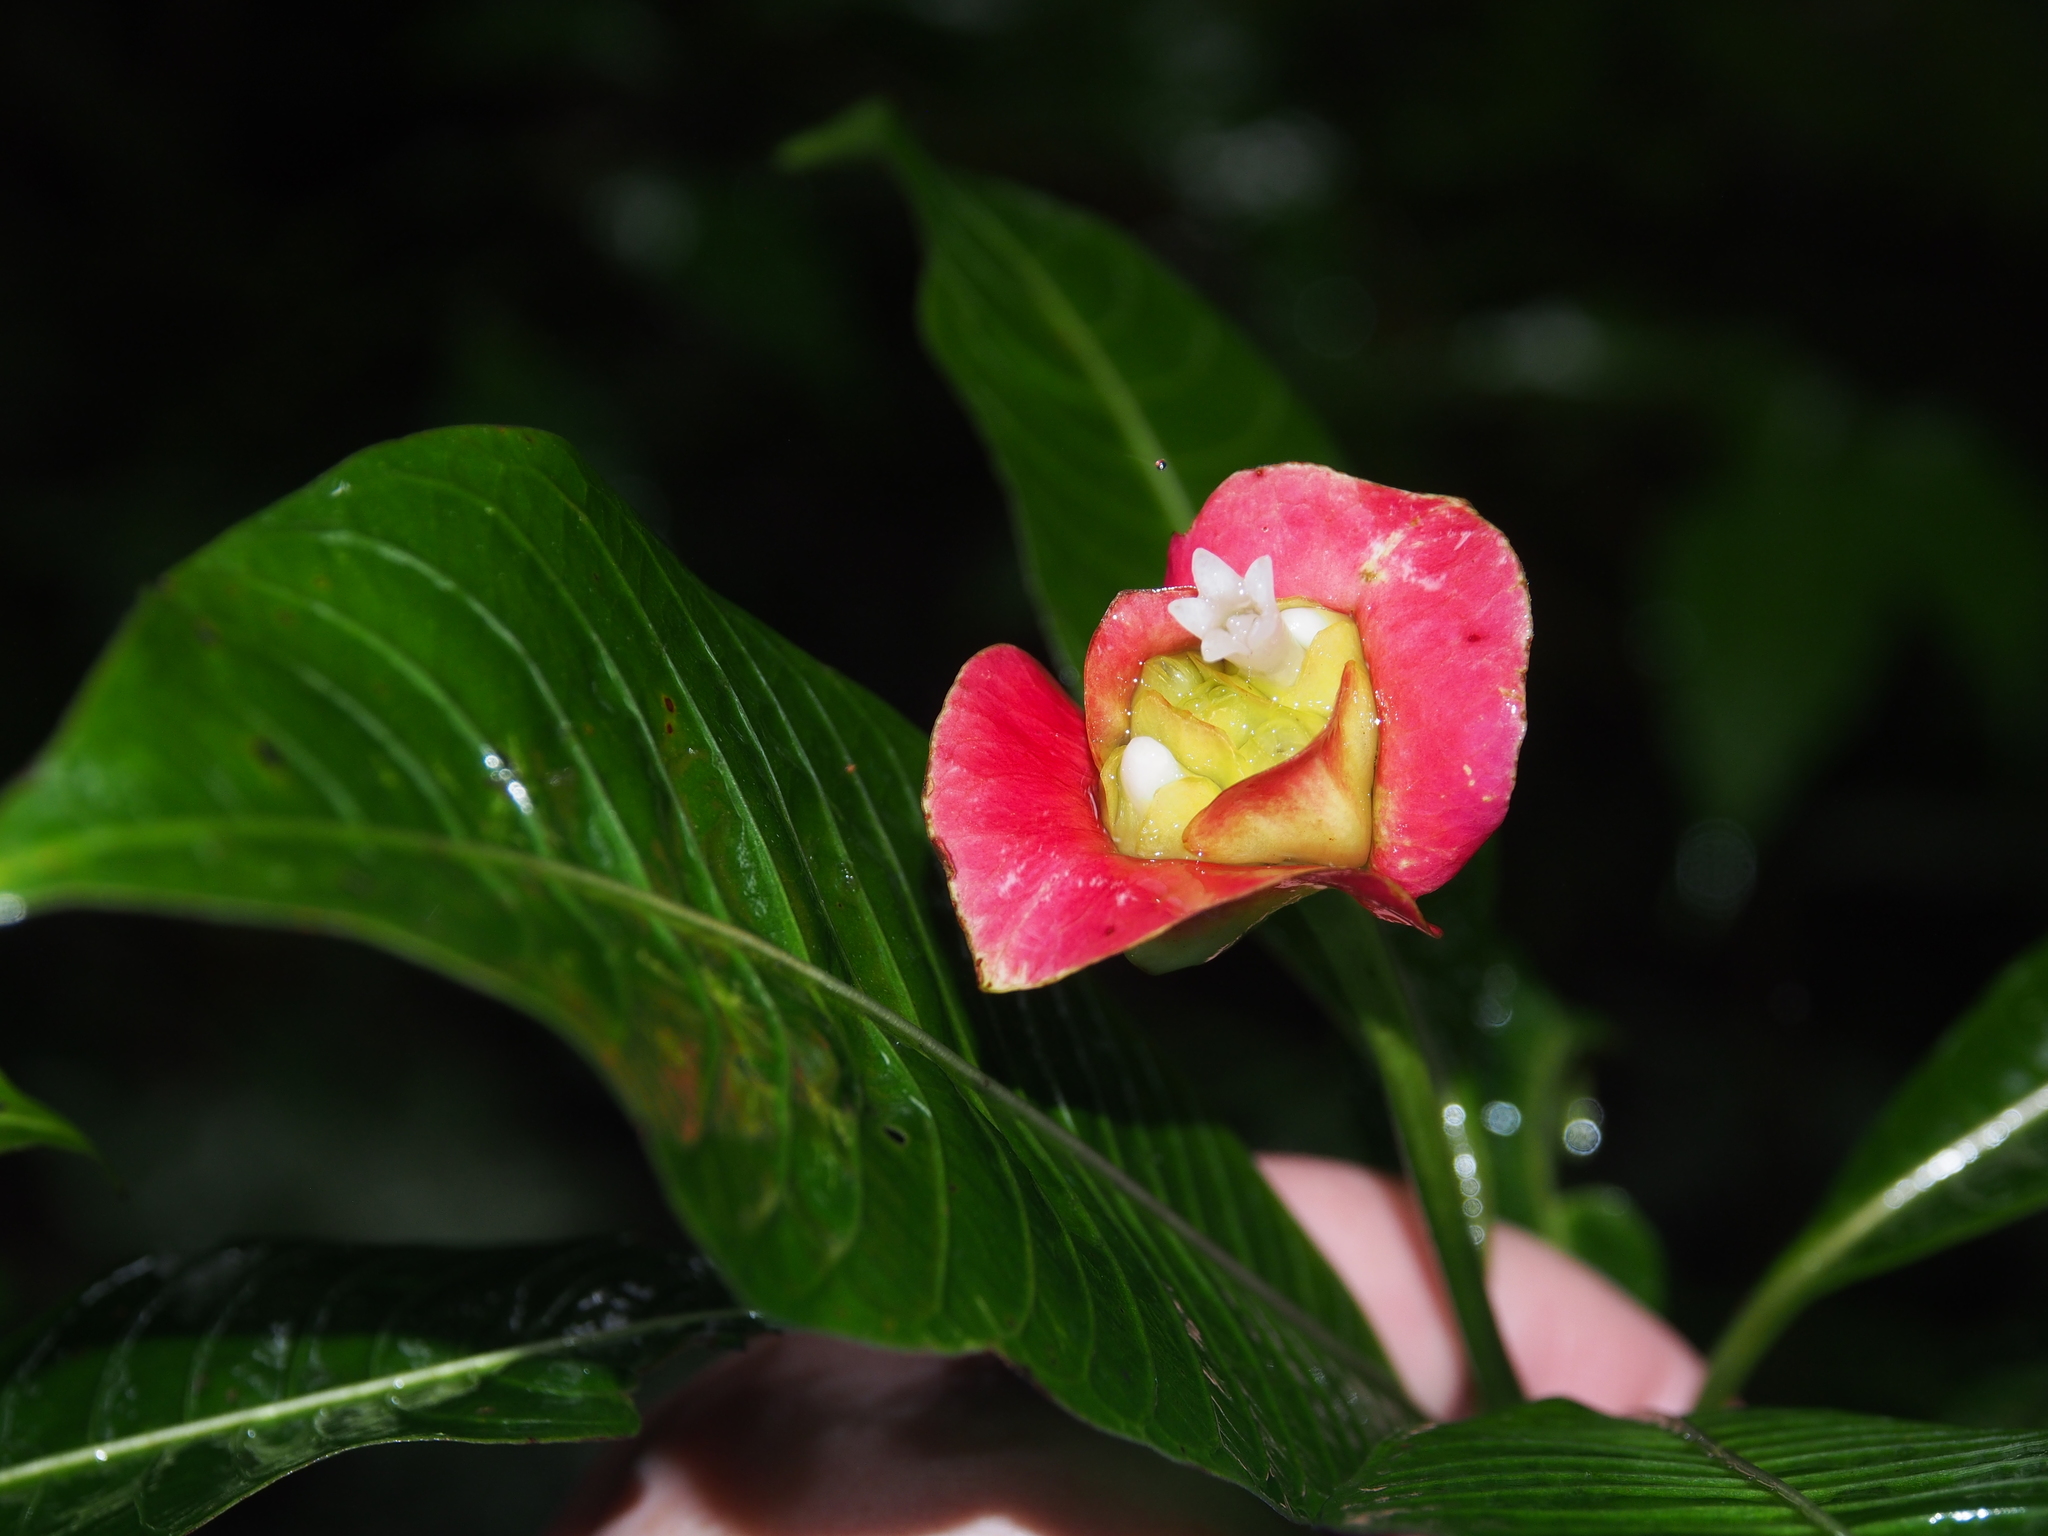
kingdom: Plantae
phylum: Tracheophyta
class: Magnoliopsida
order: Gentianales
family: Rubiaceae
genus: Palicourea
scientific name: Palicourea elata
